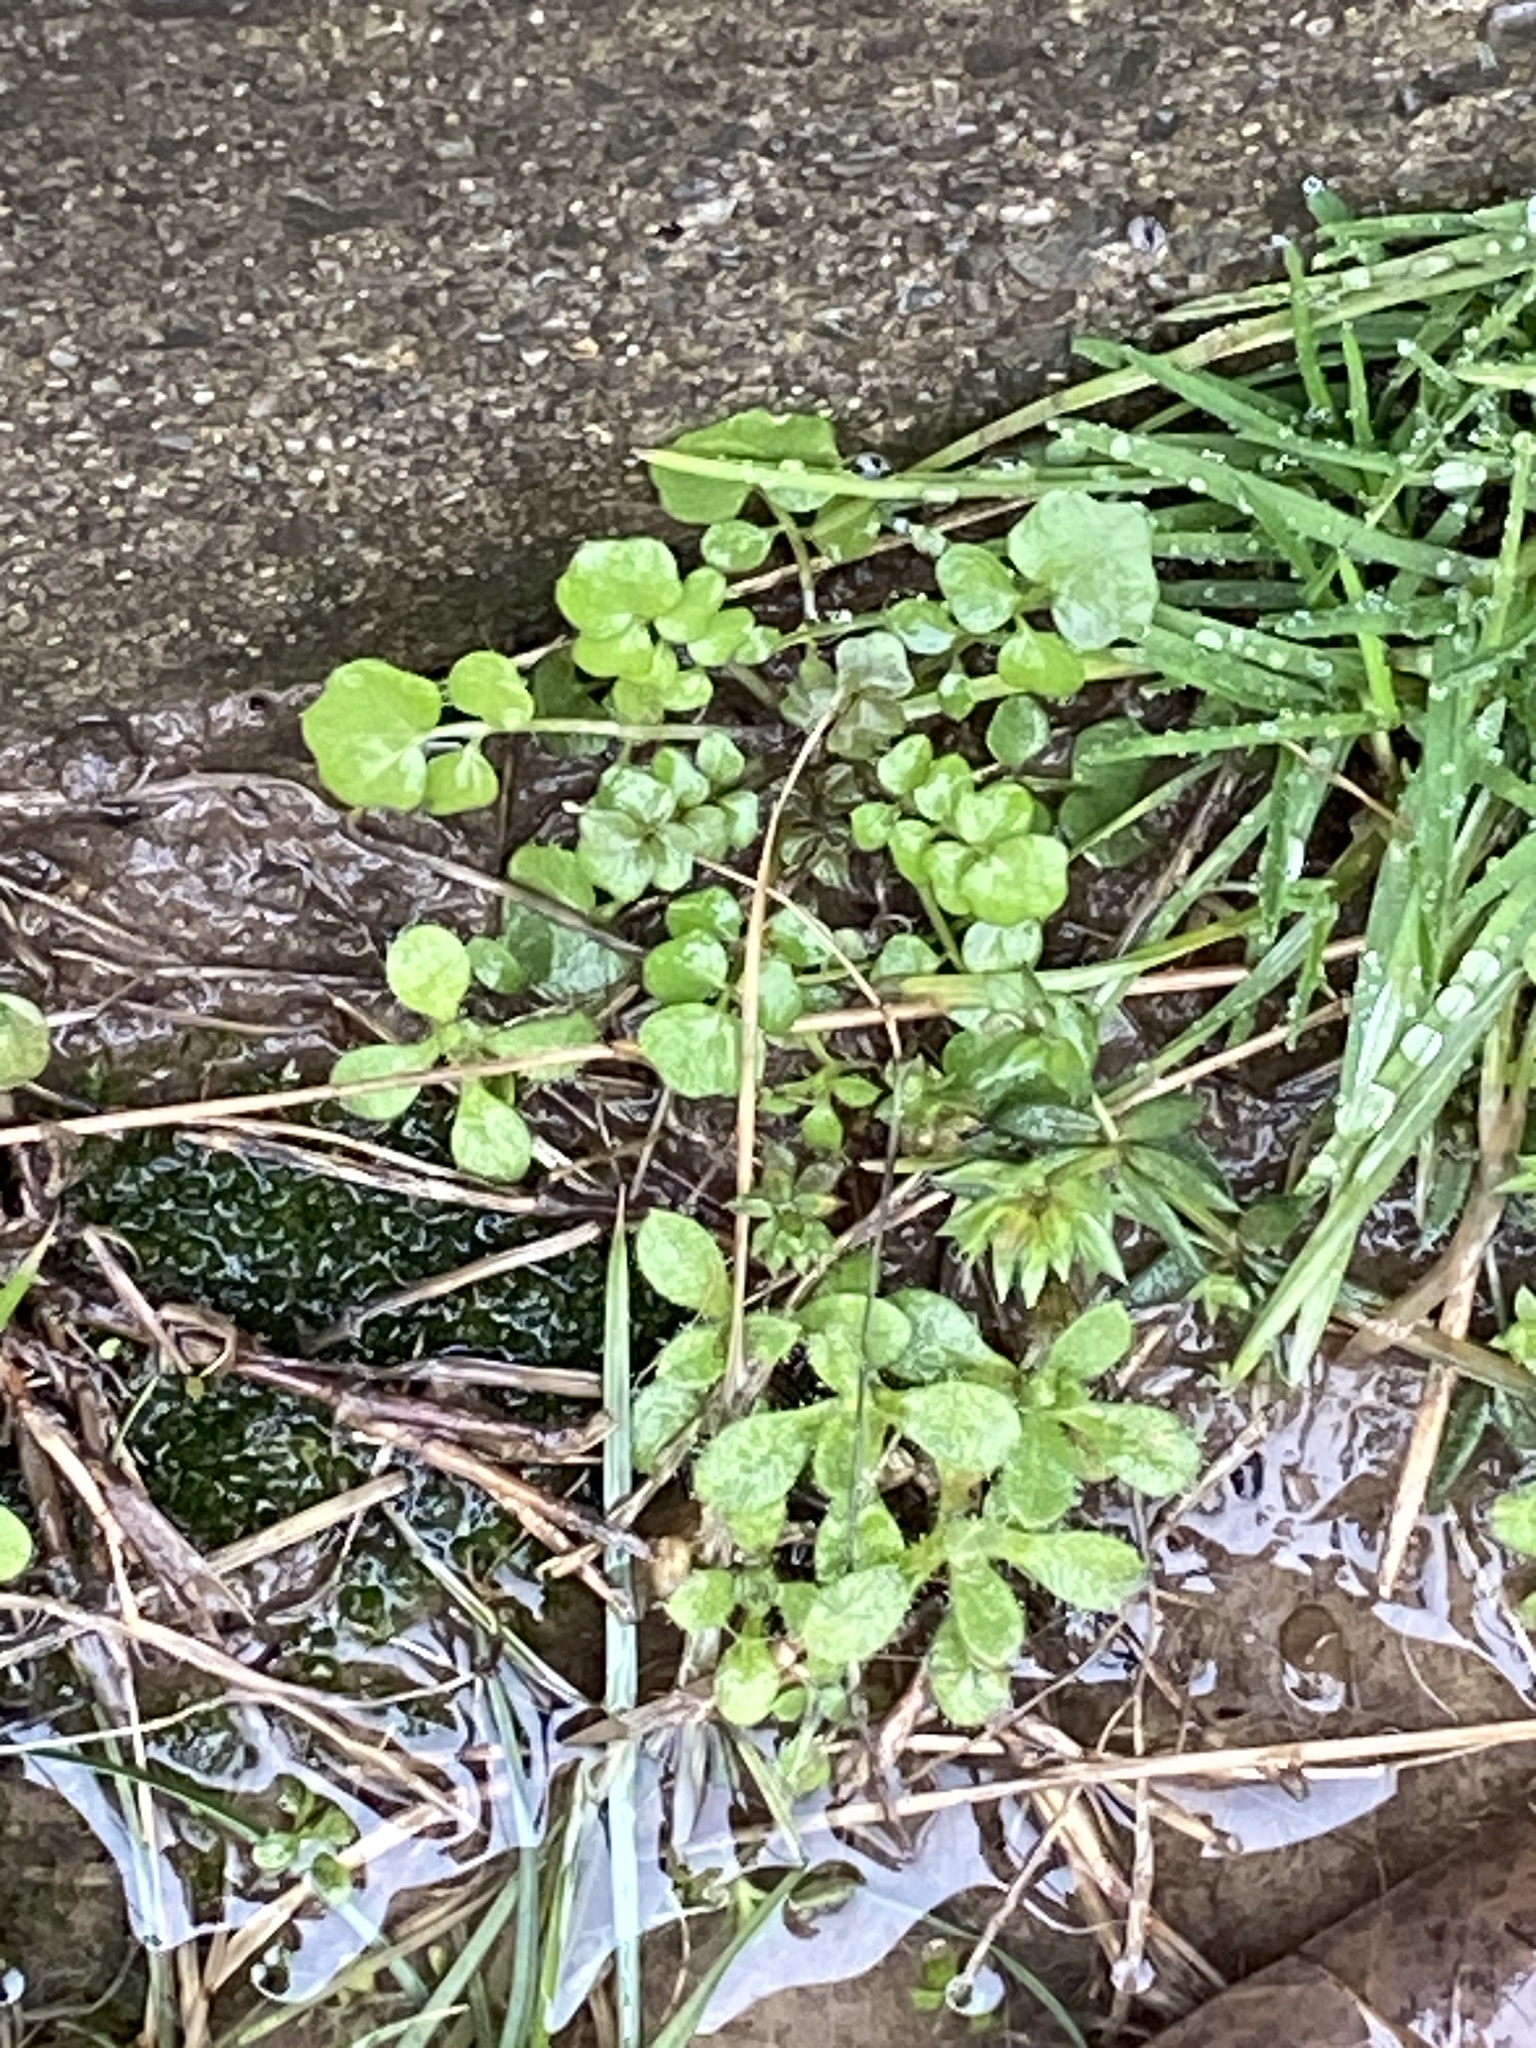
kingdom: Plantae
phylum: Tracheophyta
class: Magnoliopsida
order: Brassicales
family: Brassicaceae
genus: Cardamine
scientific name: Cardamine hirsuta
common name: Hairy bittercress
